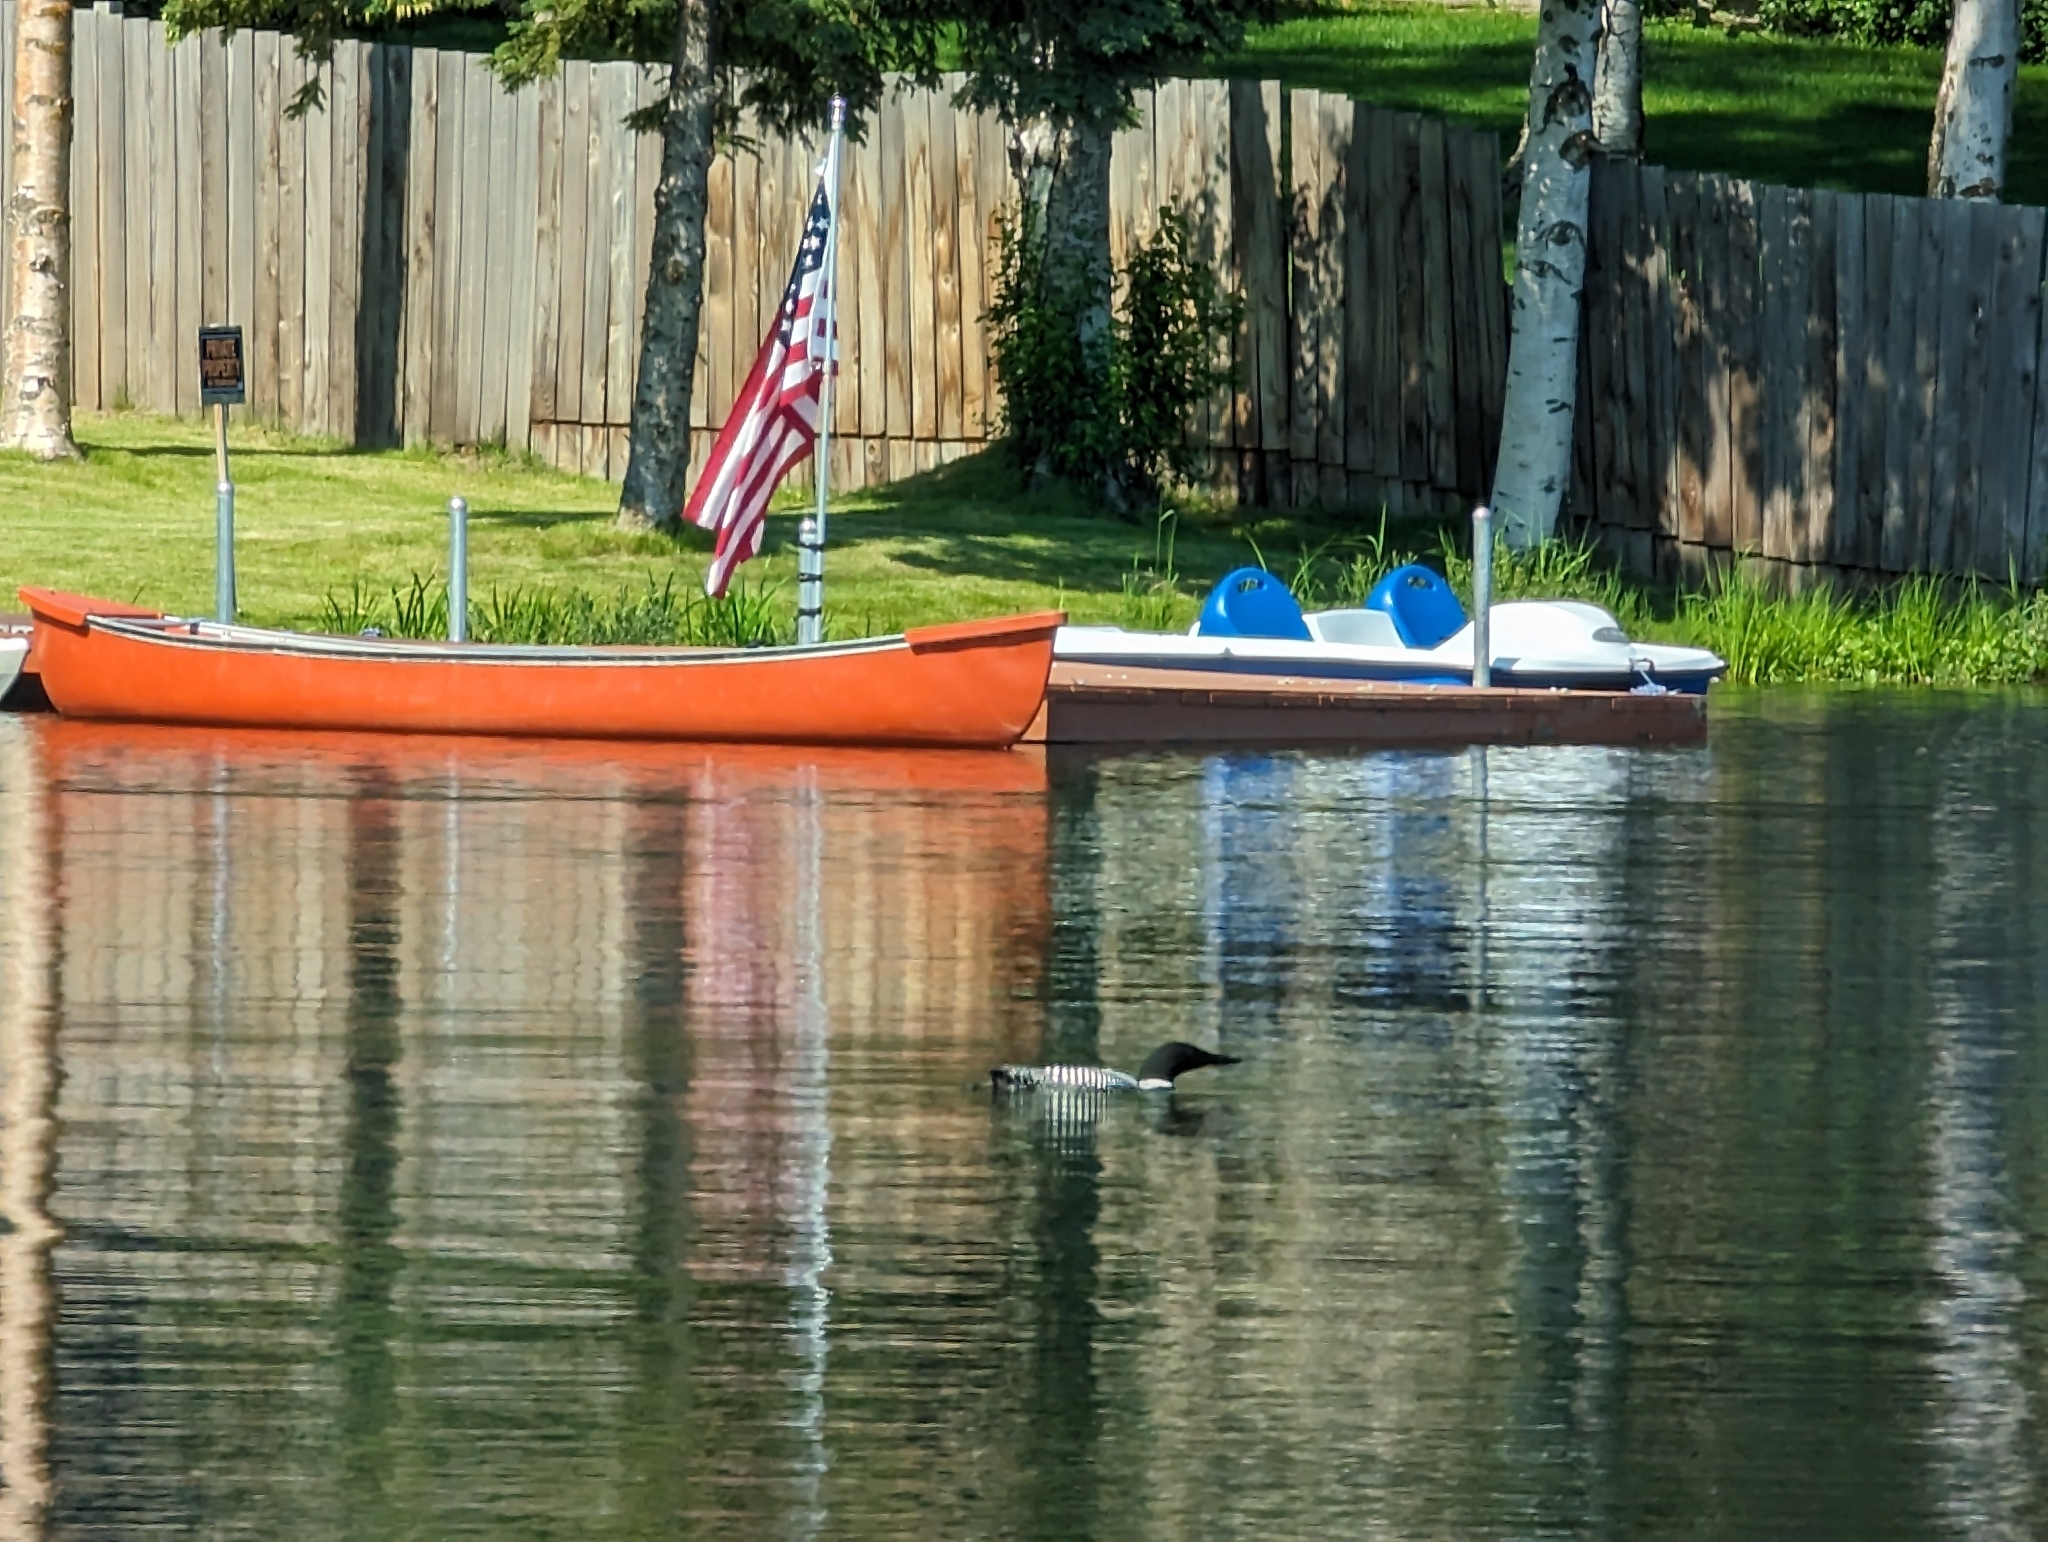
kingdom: Animalia
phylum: Chordata
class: Aves
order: Gaviiformes
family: Gaviidae
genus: Gavia
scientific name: Gavia immer
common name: Common loon
